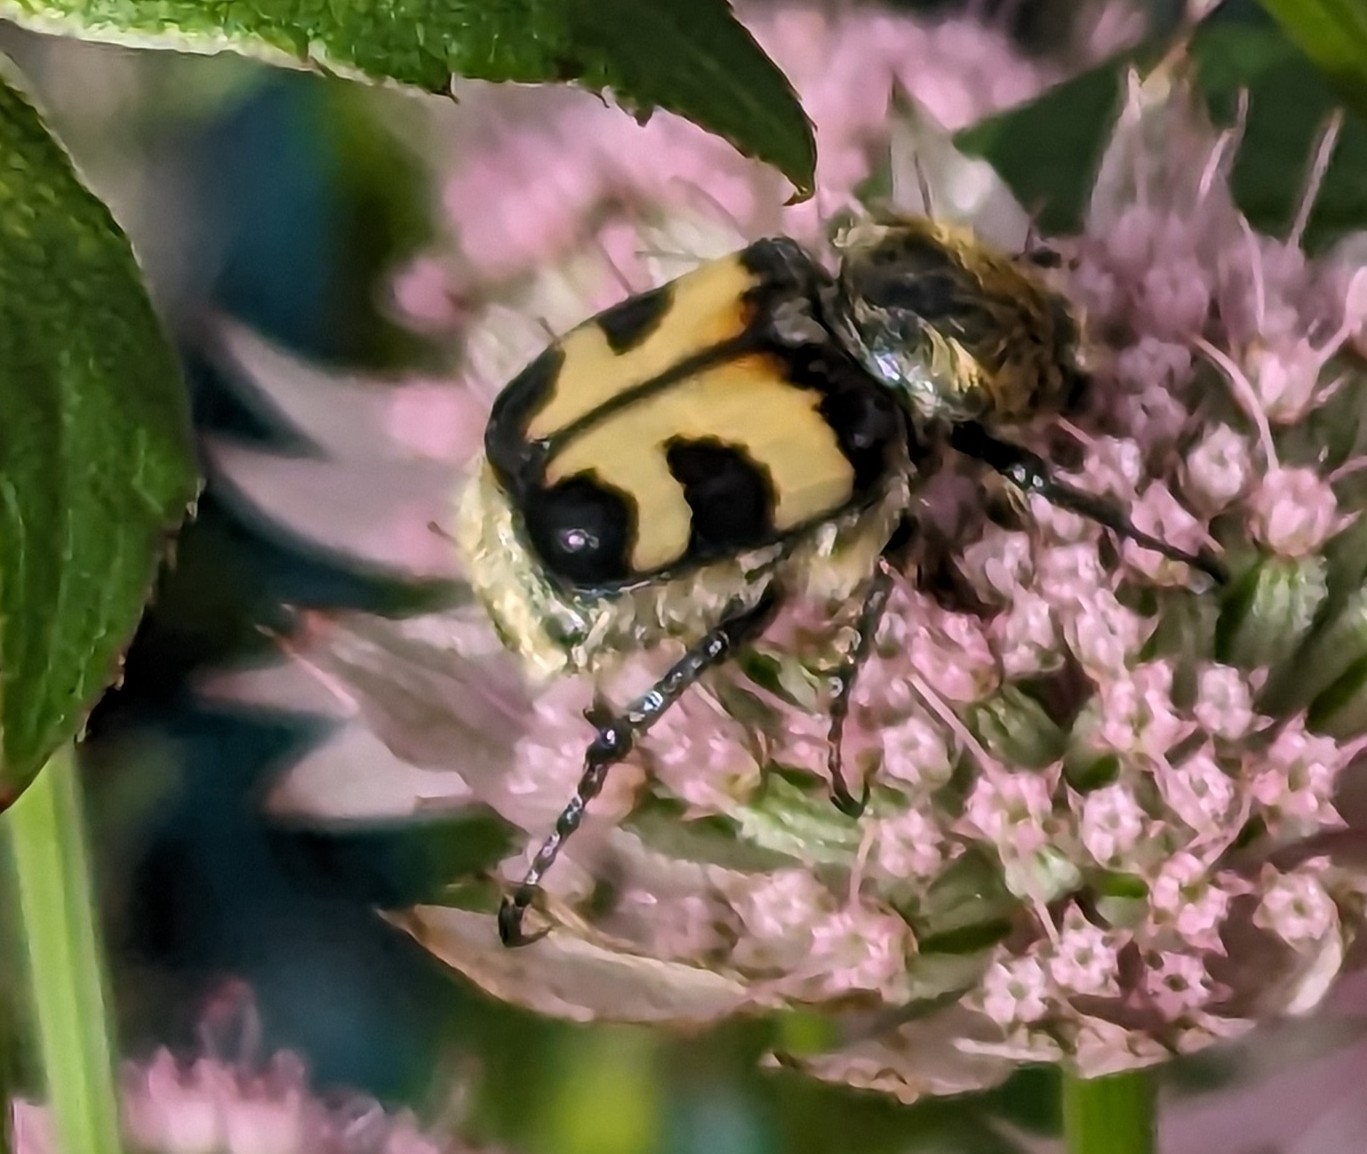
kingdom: Animalia
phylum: Arthropoda
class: Insecta
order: Coleoptera
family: Scarabaeidae
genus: Trichius
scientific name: Trichius fasciatus
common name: Bee beetle
